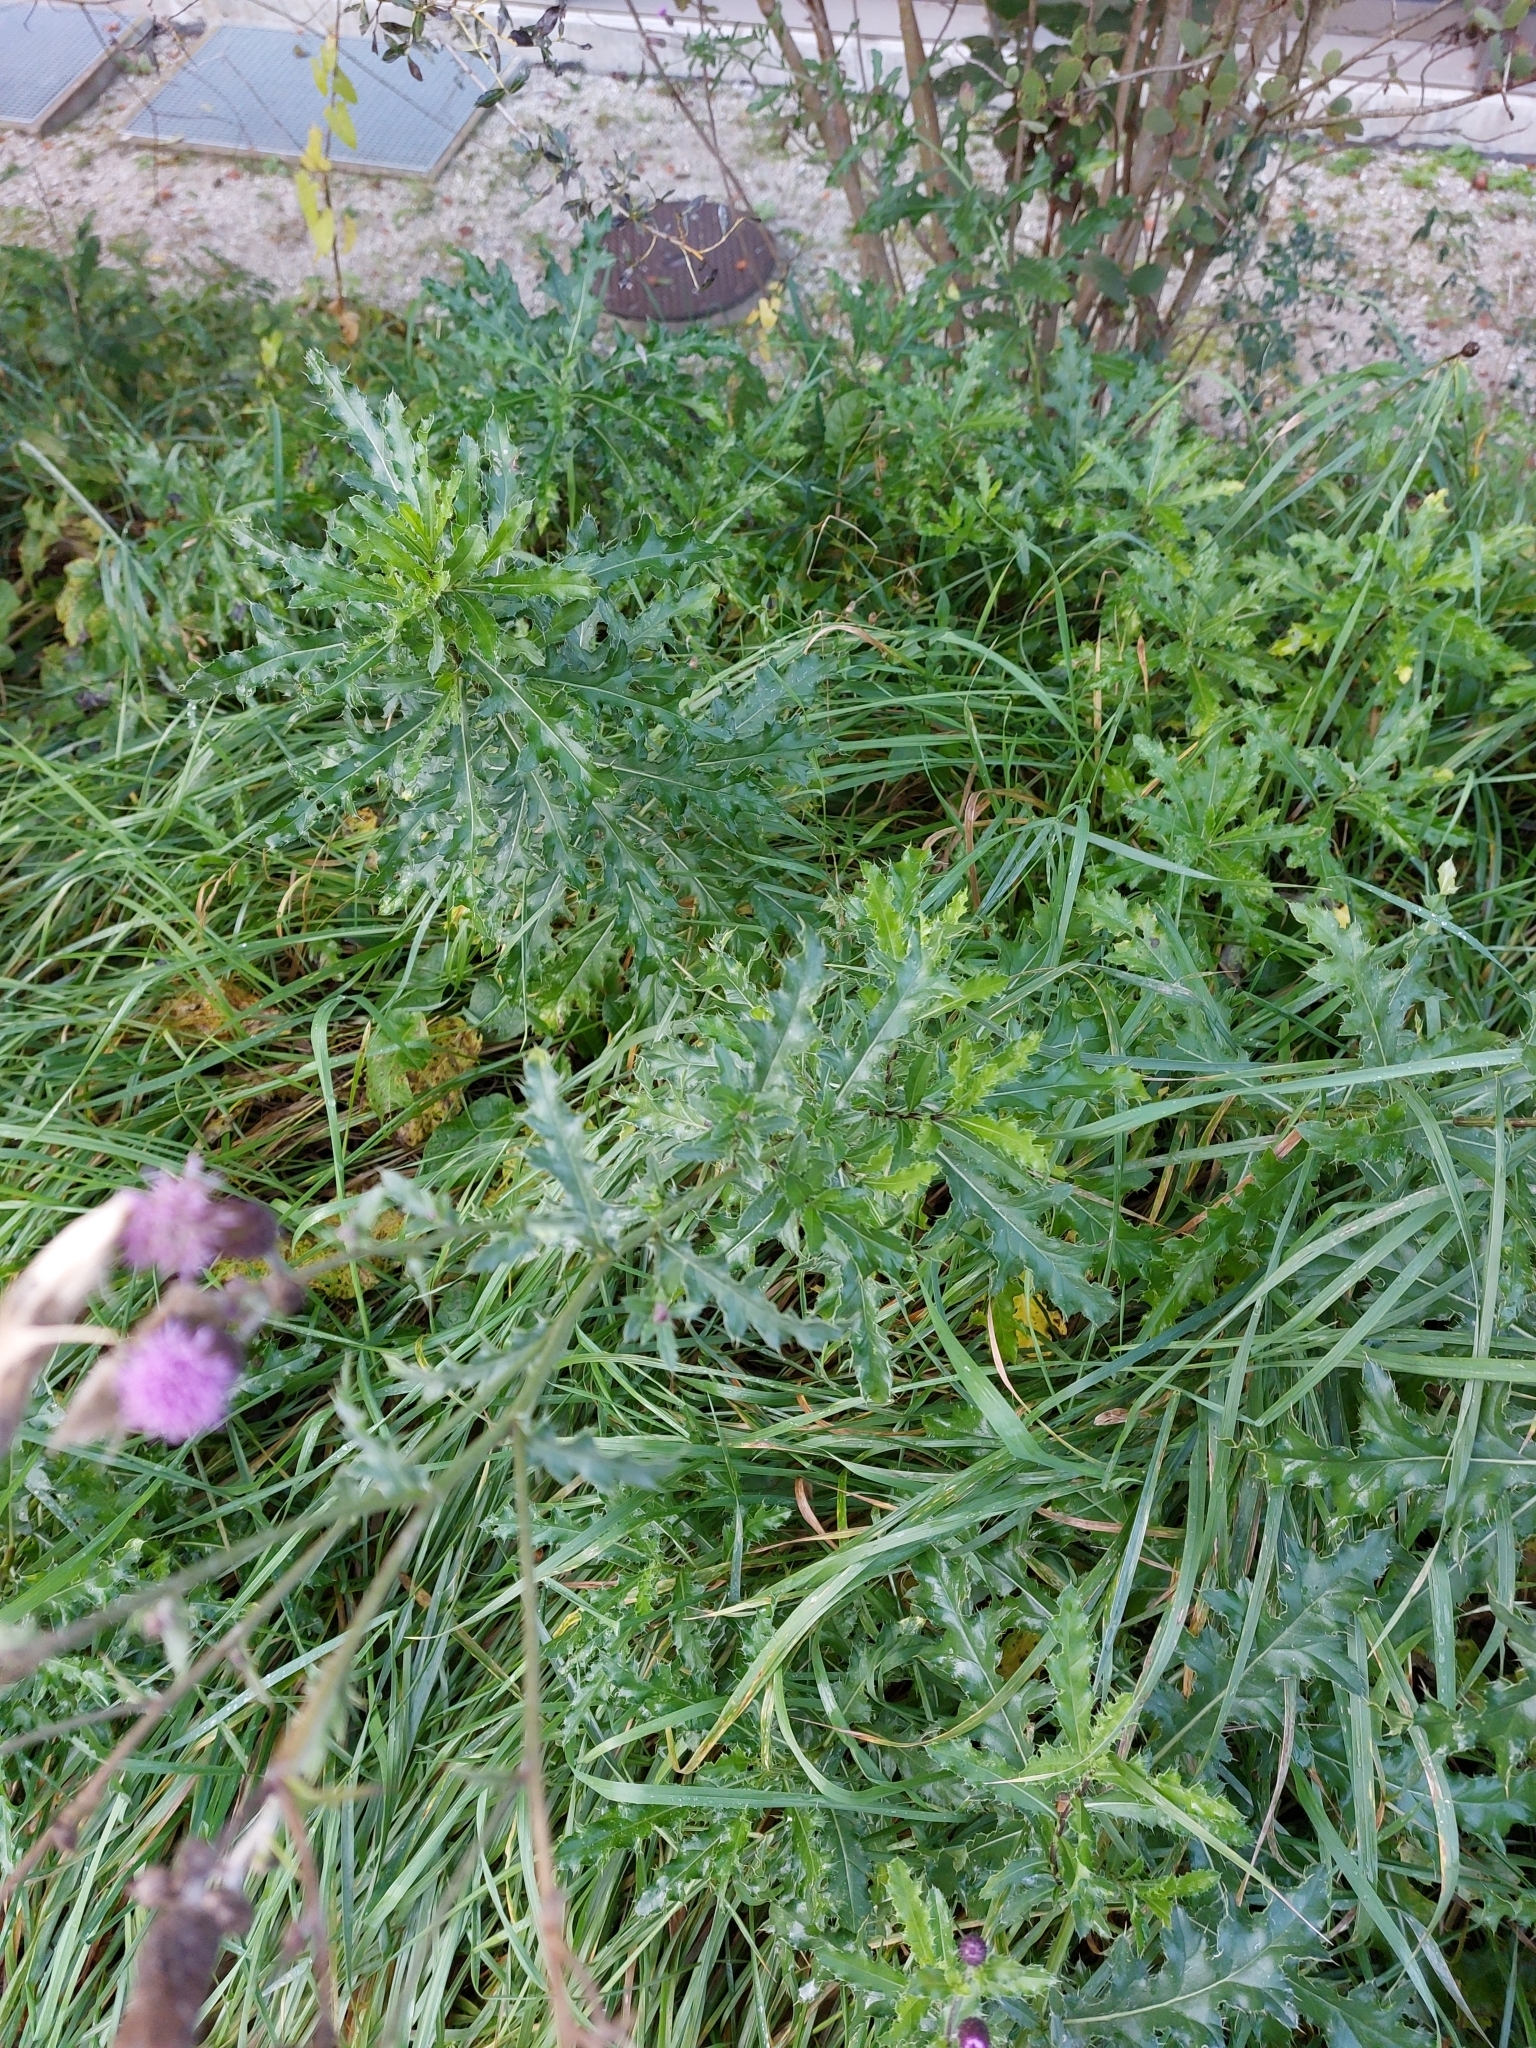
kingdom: Plantae
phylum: Tracheophyta
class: Magnoliopsida
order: Asterales
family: Asteraceae
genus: Cirsium
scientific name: Cirsium arvense
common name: Creeping thistle
